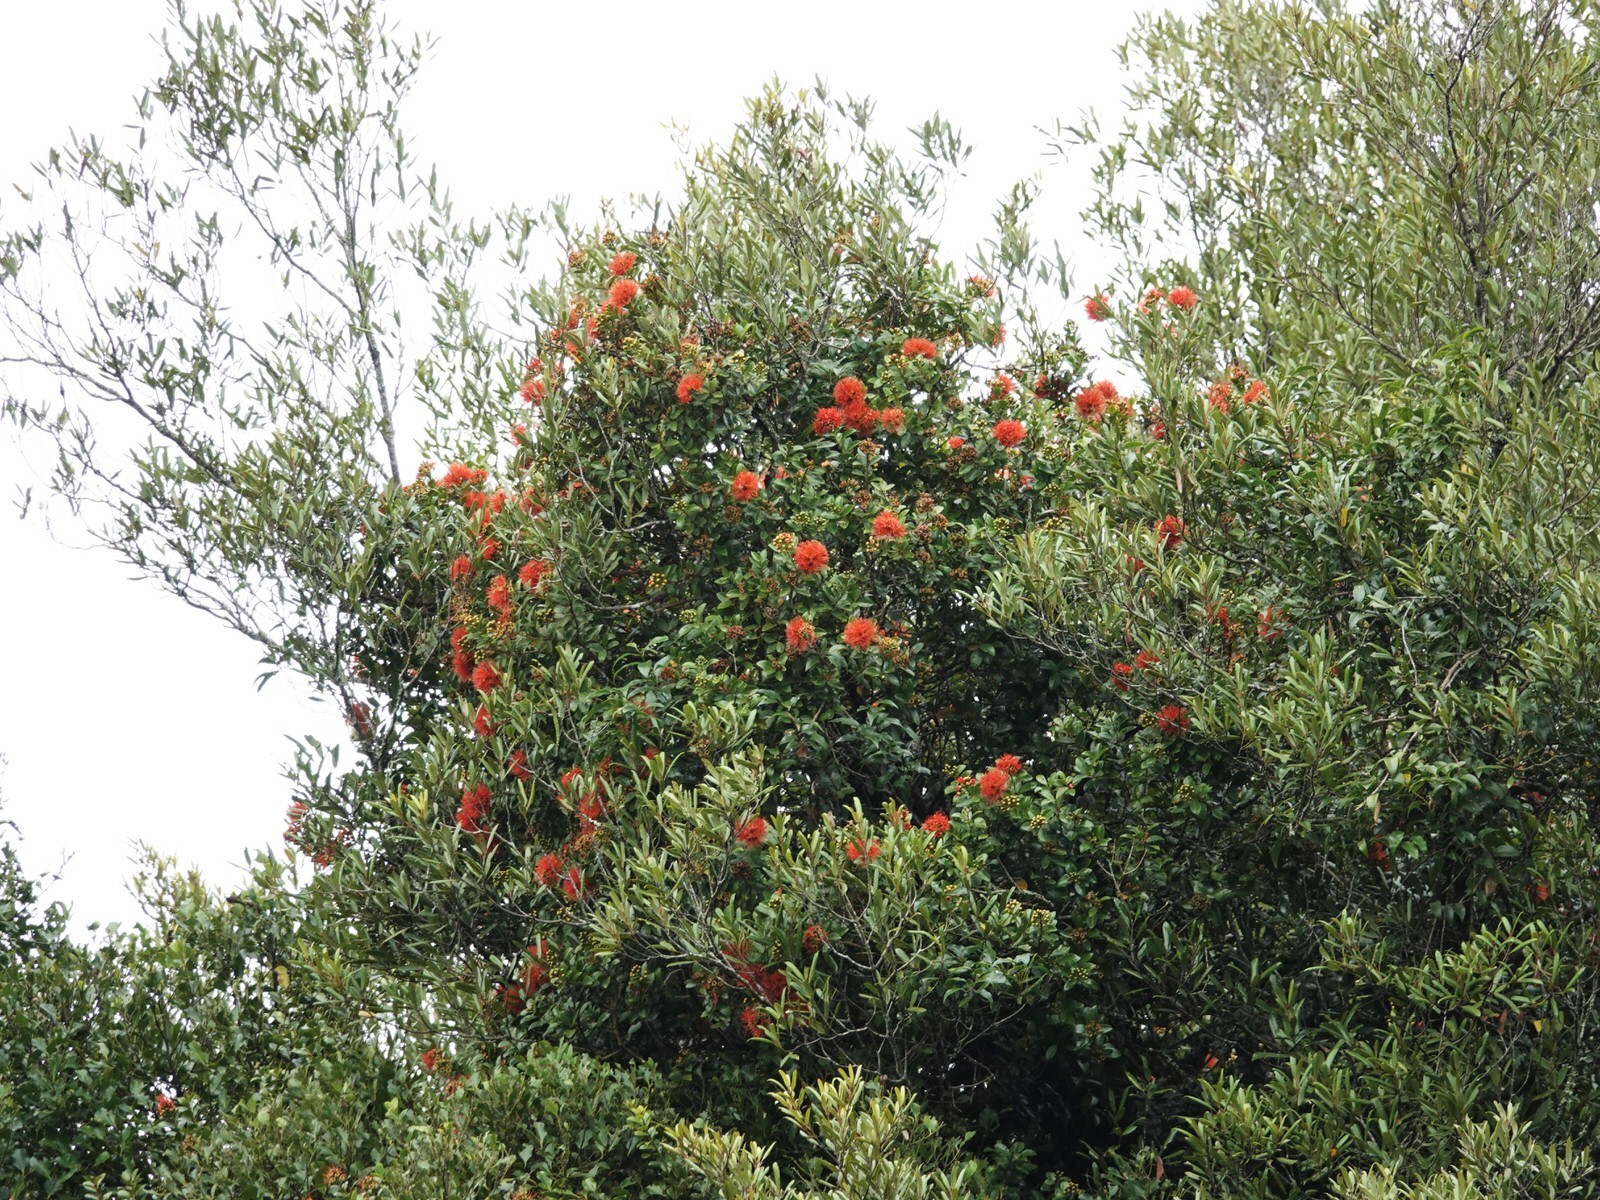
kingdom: Plantae
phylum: Tracheophyta
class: Magnoliopsida
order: Myrtales
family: Myrtaceae
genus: Metrosideros
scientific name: Metrosideros fulgens
